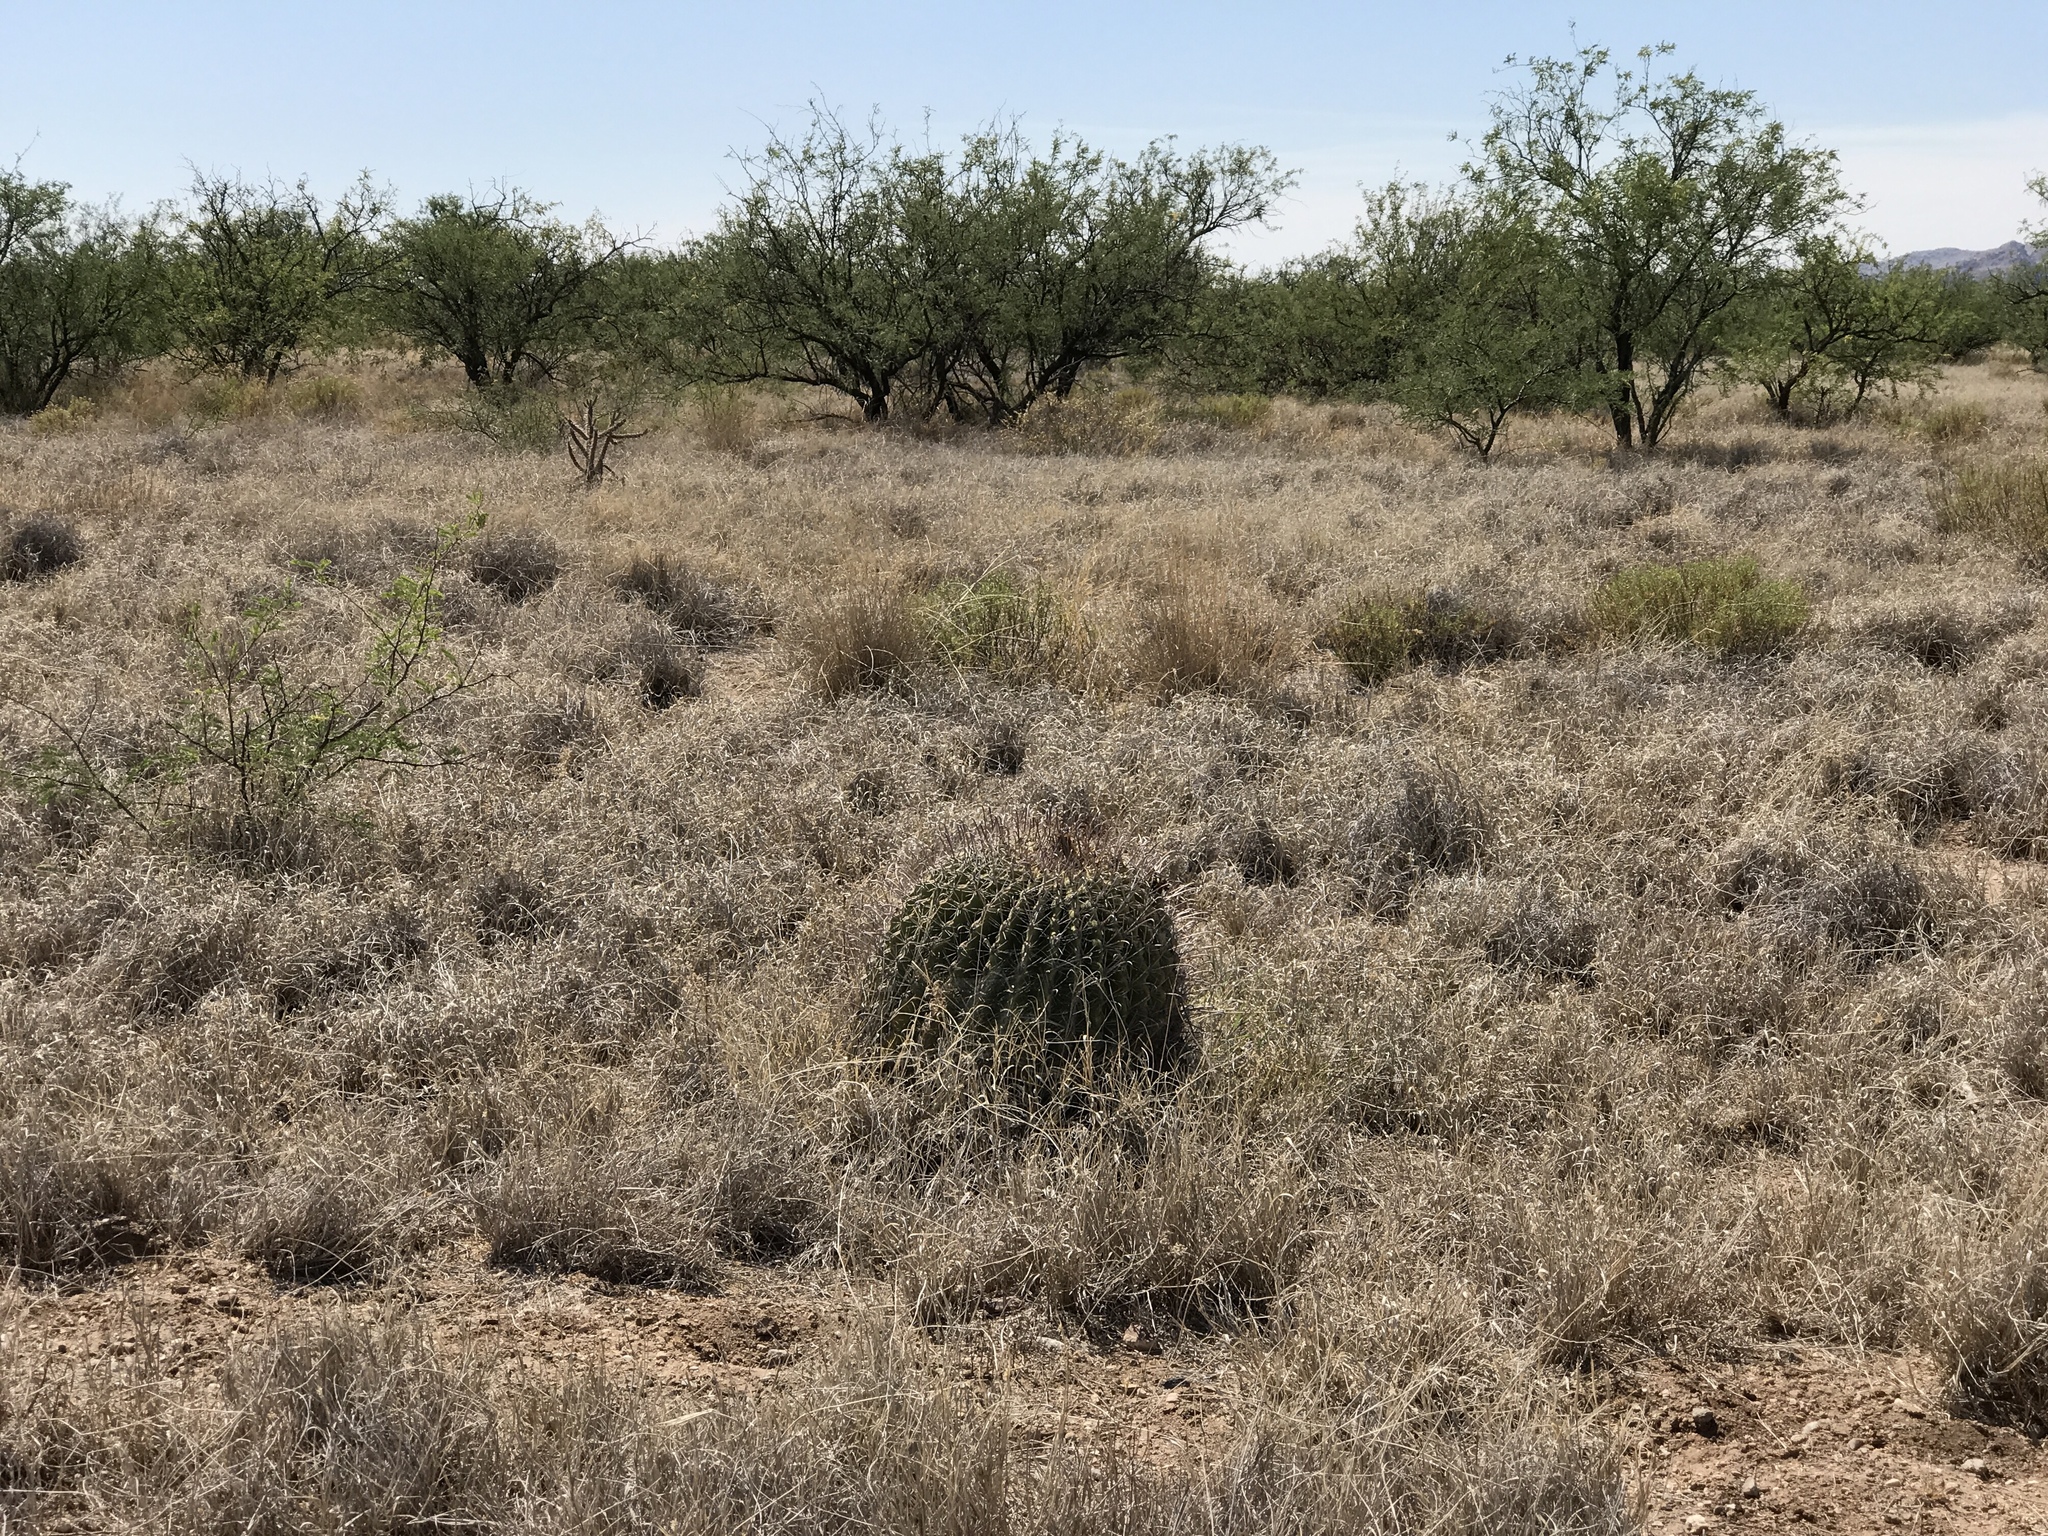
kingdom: Plantae
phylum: Tracheophyta
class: Magnoliopsida
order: Caryophyllales
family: Cactaceae
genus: Ferocactus
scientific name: Ferocactus wislizeni
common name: Candy barrel cactus
